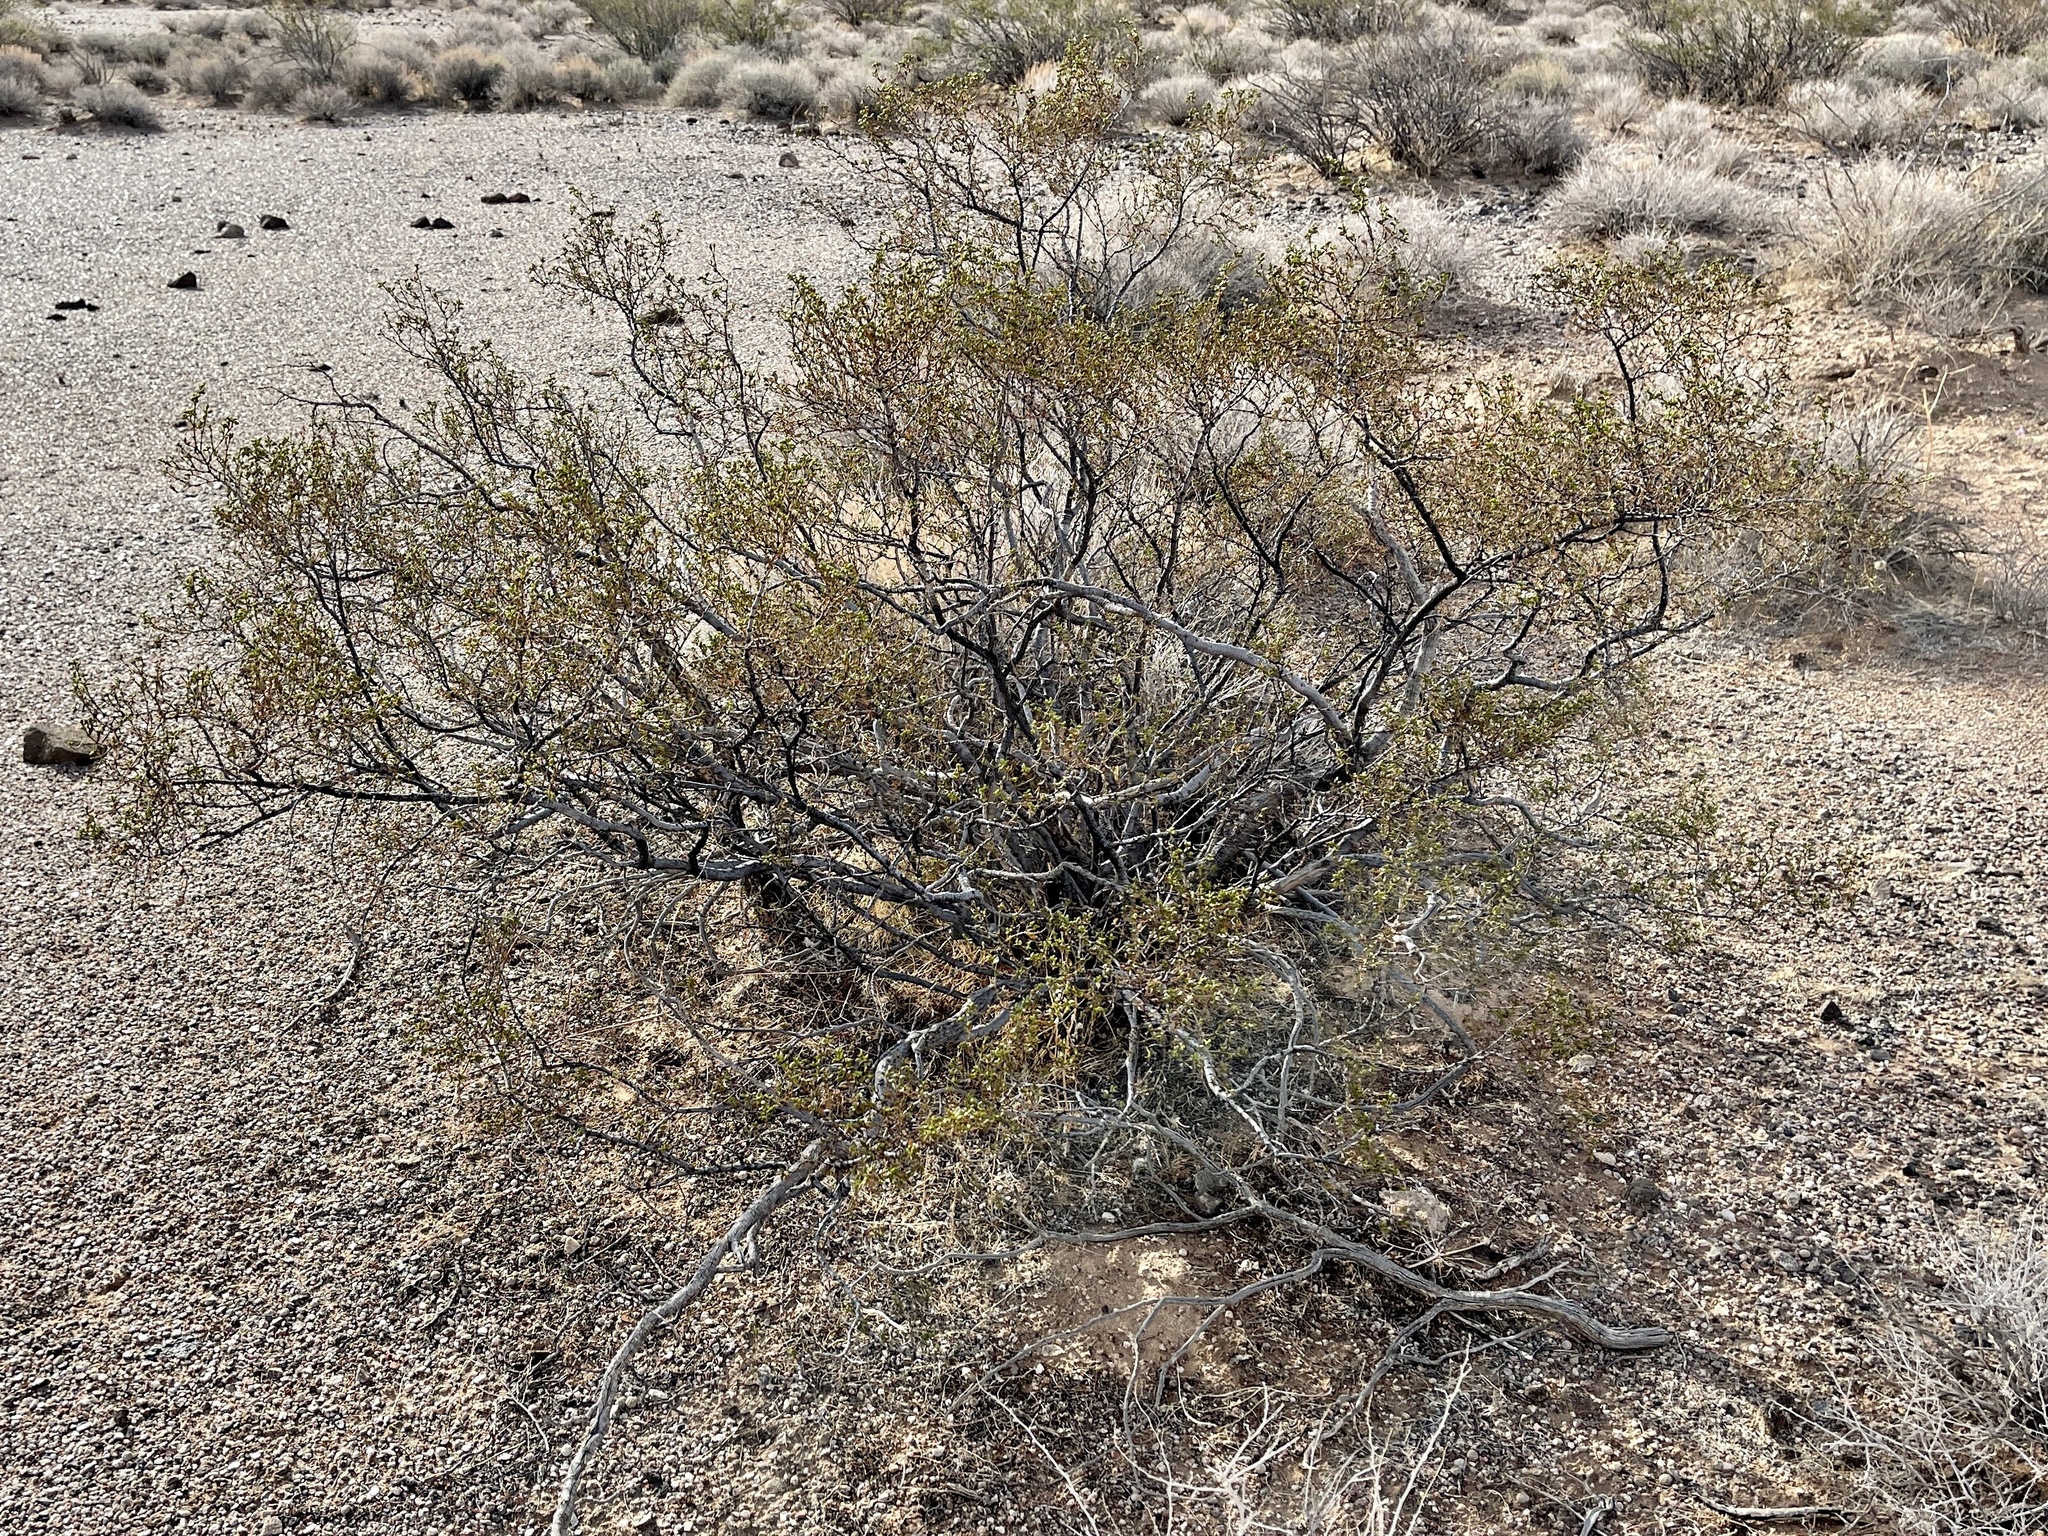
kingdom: Plantae
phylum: Tracheophyta
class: Magnoliopsida
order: Zygophyllales
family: Zygophyllaceae
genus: Larrea
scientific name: Larrea tridentata
